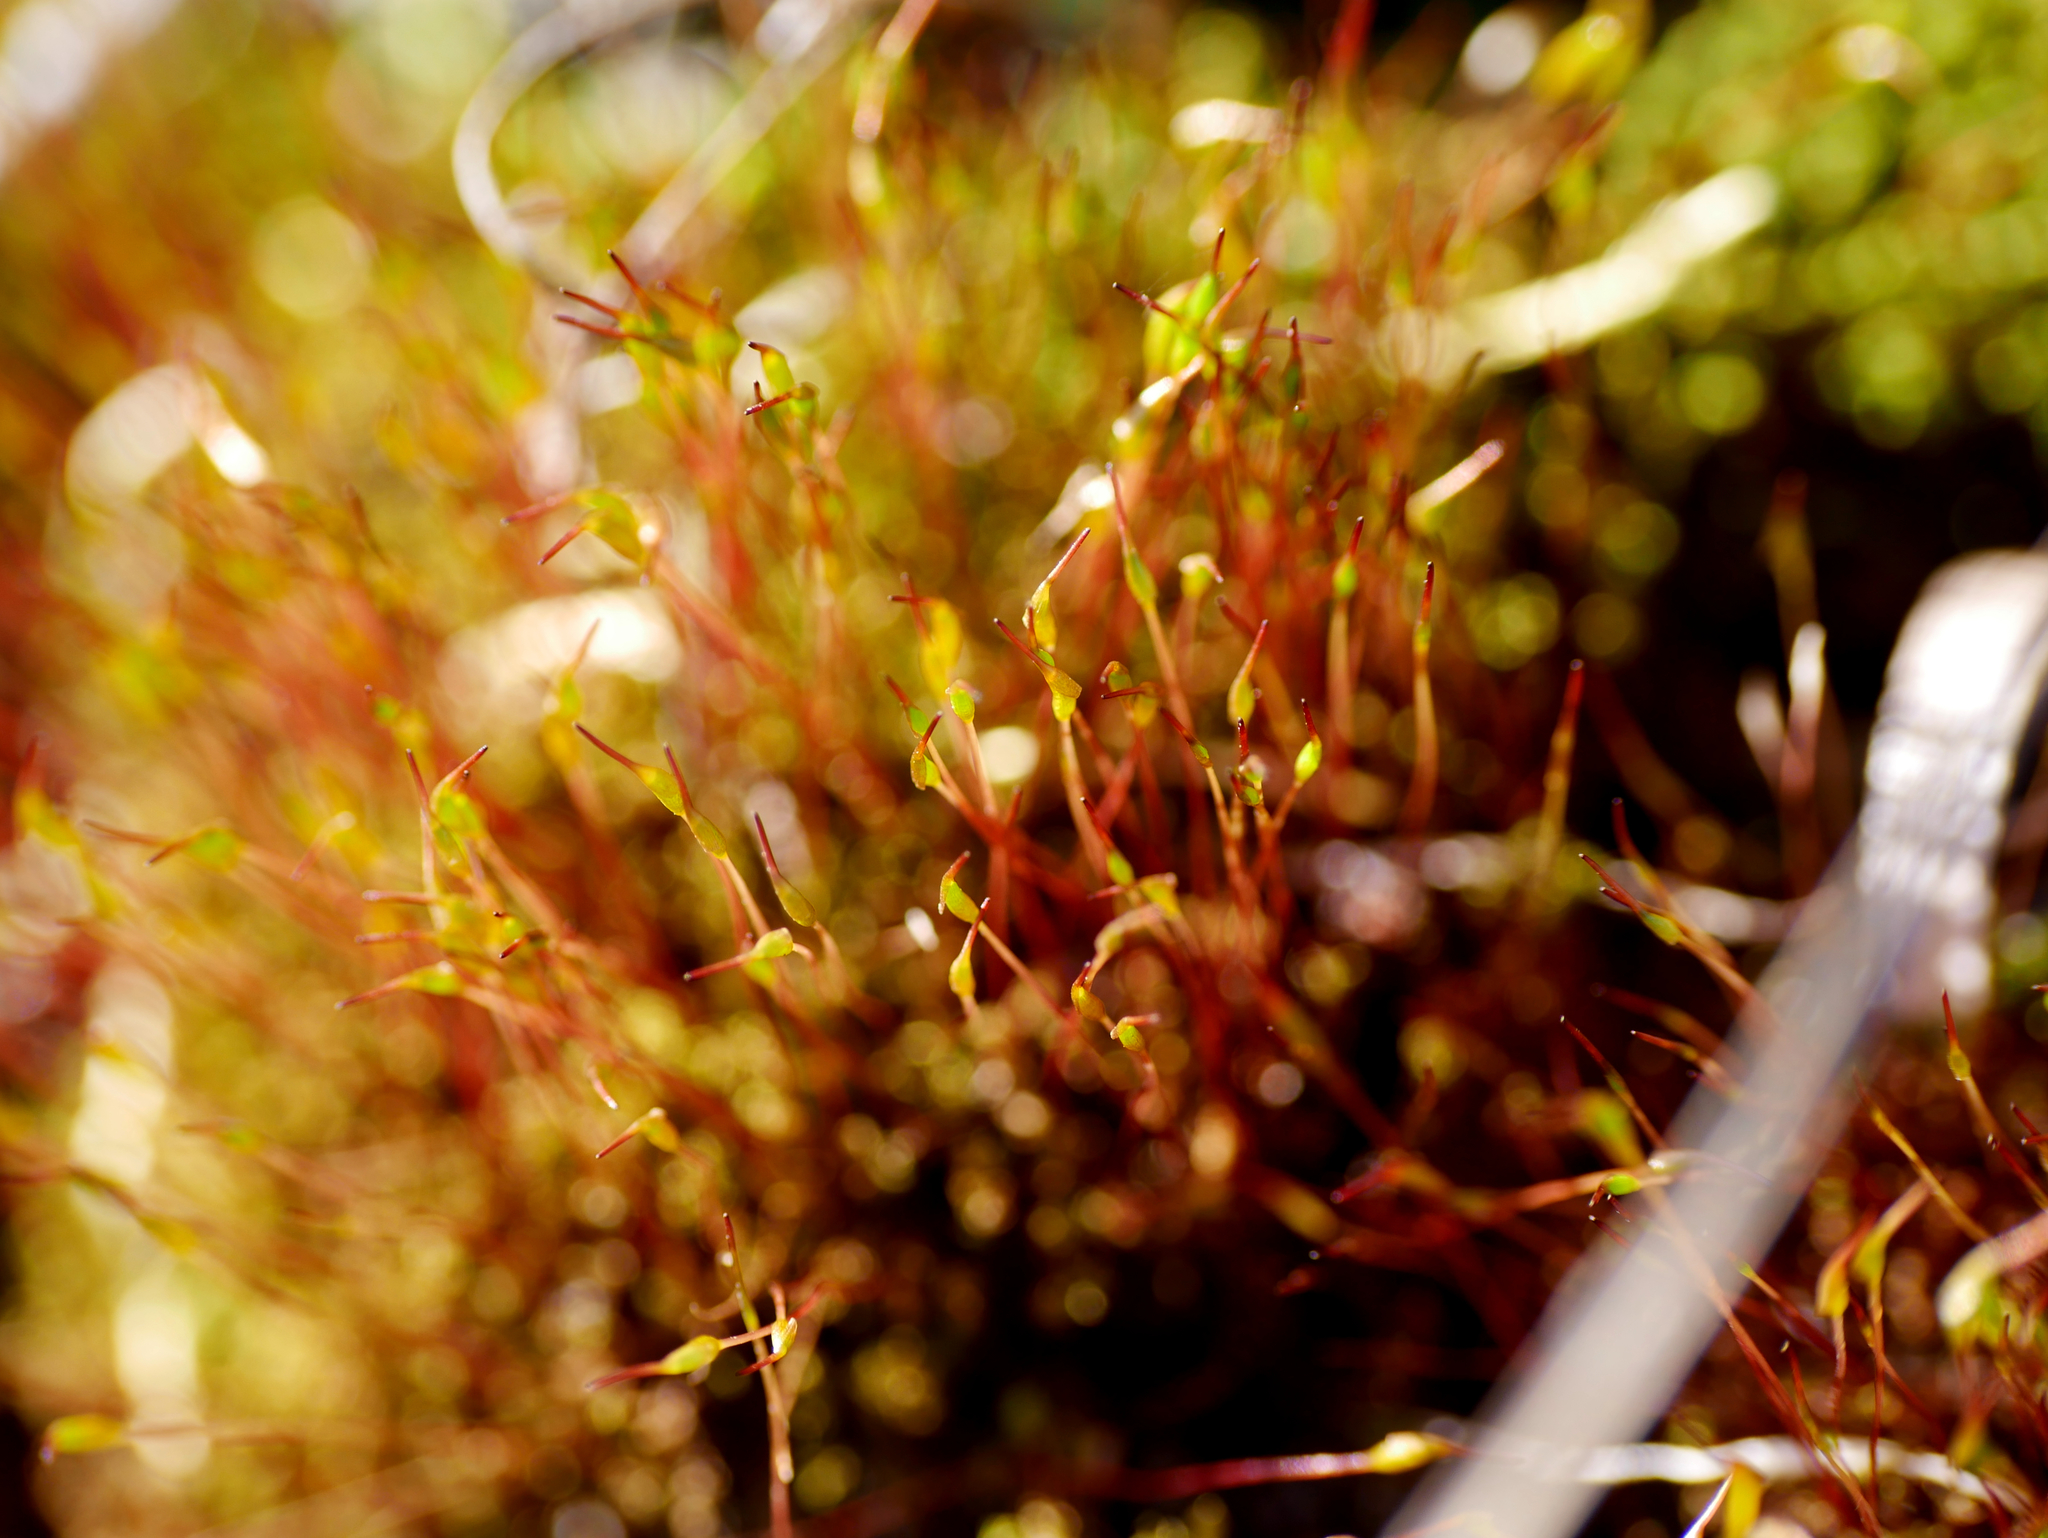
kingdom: Plantae
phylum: Bryophyta
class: Bryopsida
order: Dicranales
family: Ditrichaceae
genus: Ceratodon
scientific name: Ceratodon purpureus
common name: Redshank
